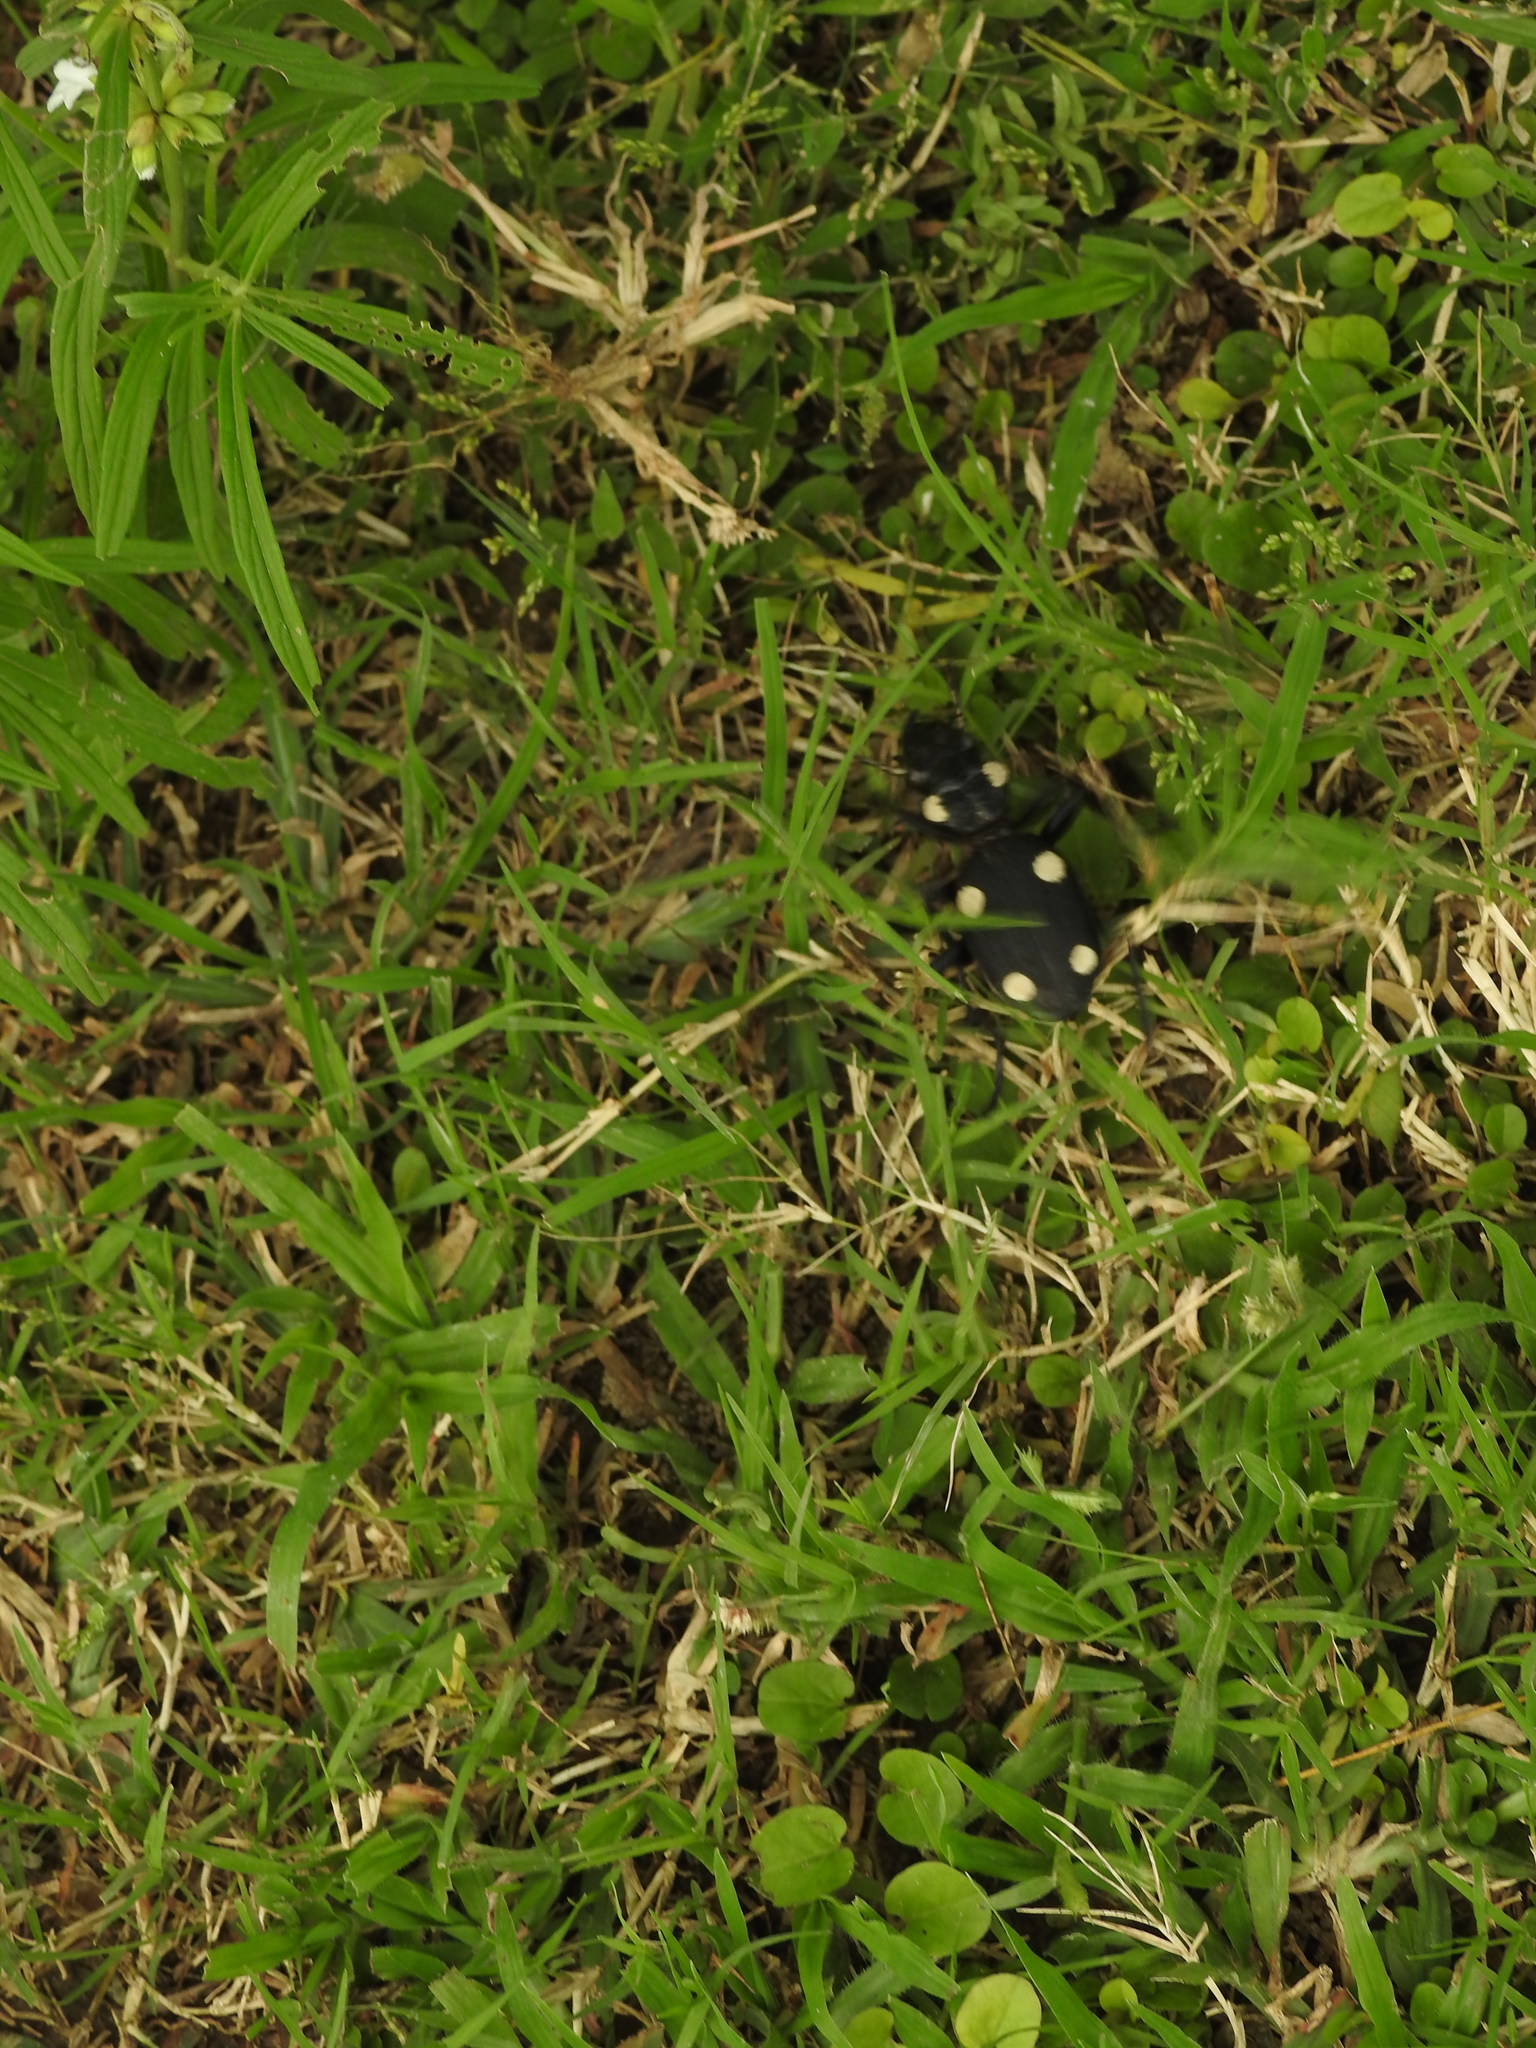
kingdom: Animalia
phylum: Arthropoda
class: Insecta
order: Coleoptera
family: Carabidae
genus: Anthia
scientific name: Anthia sexguttata
